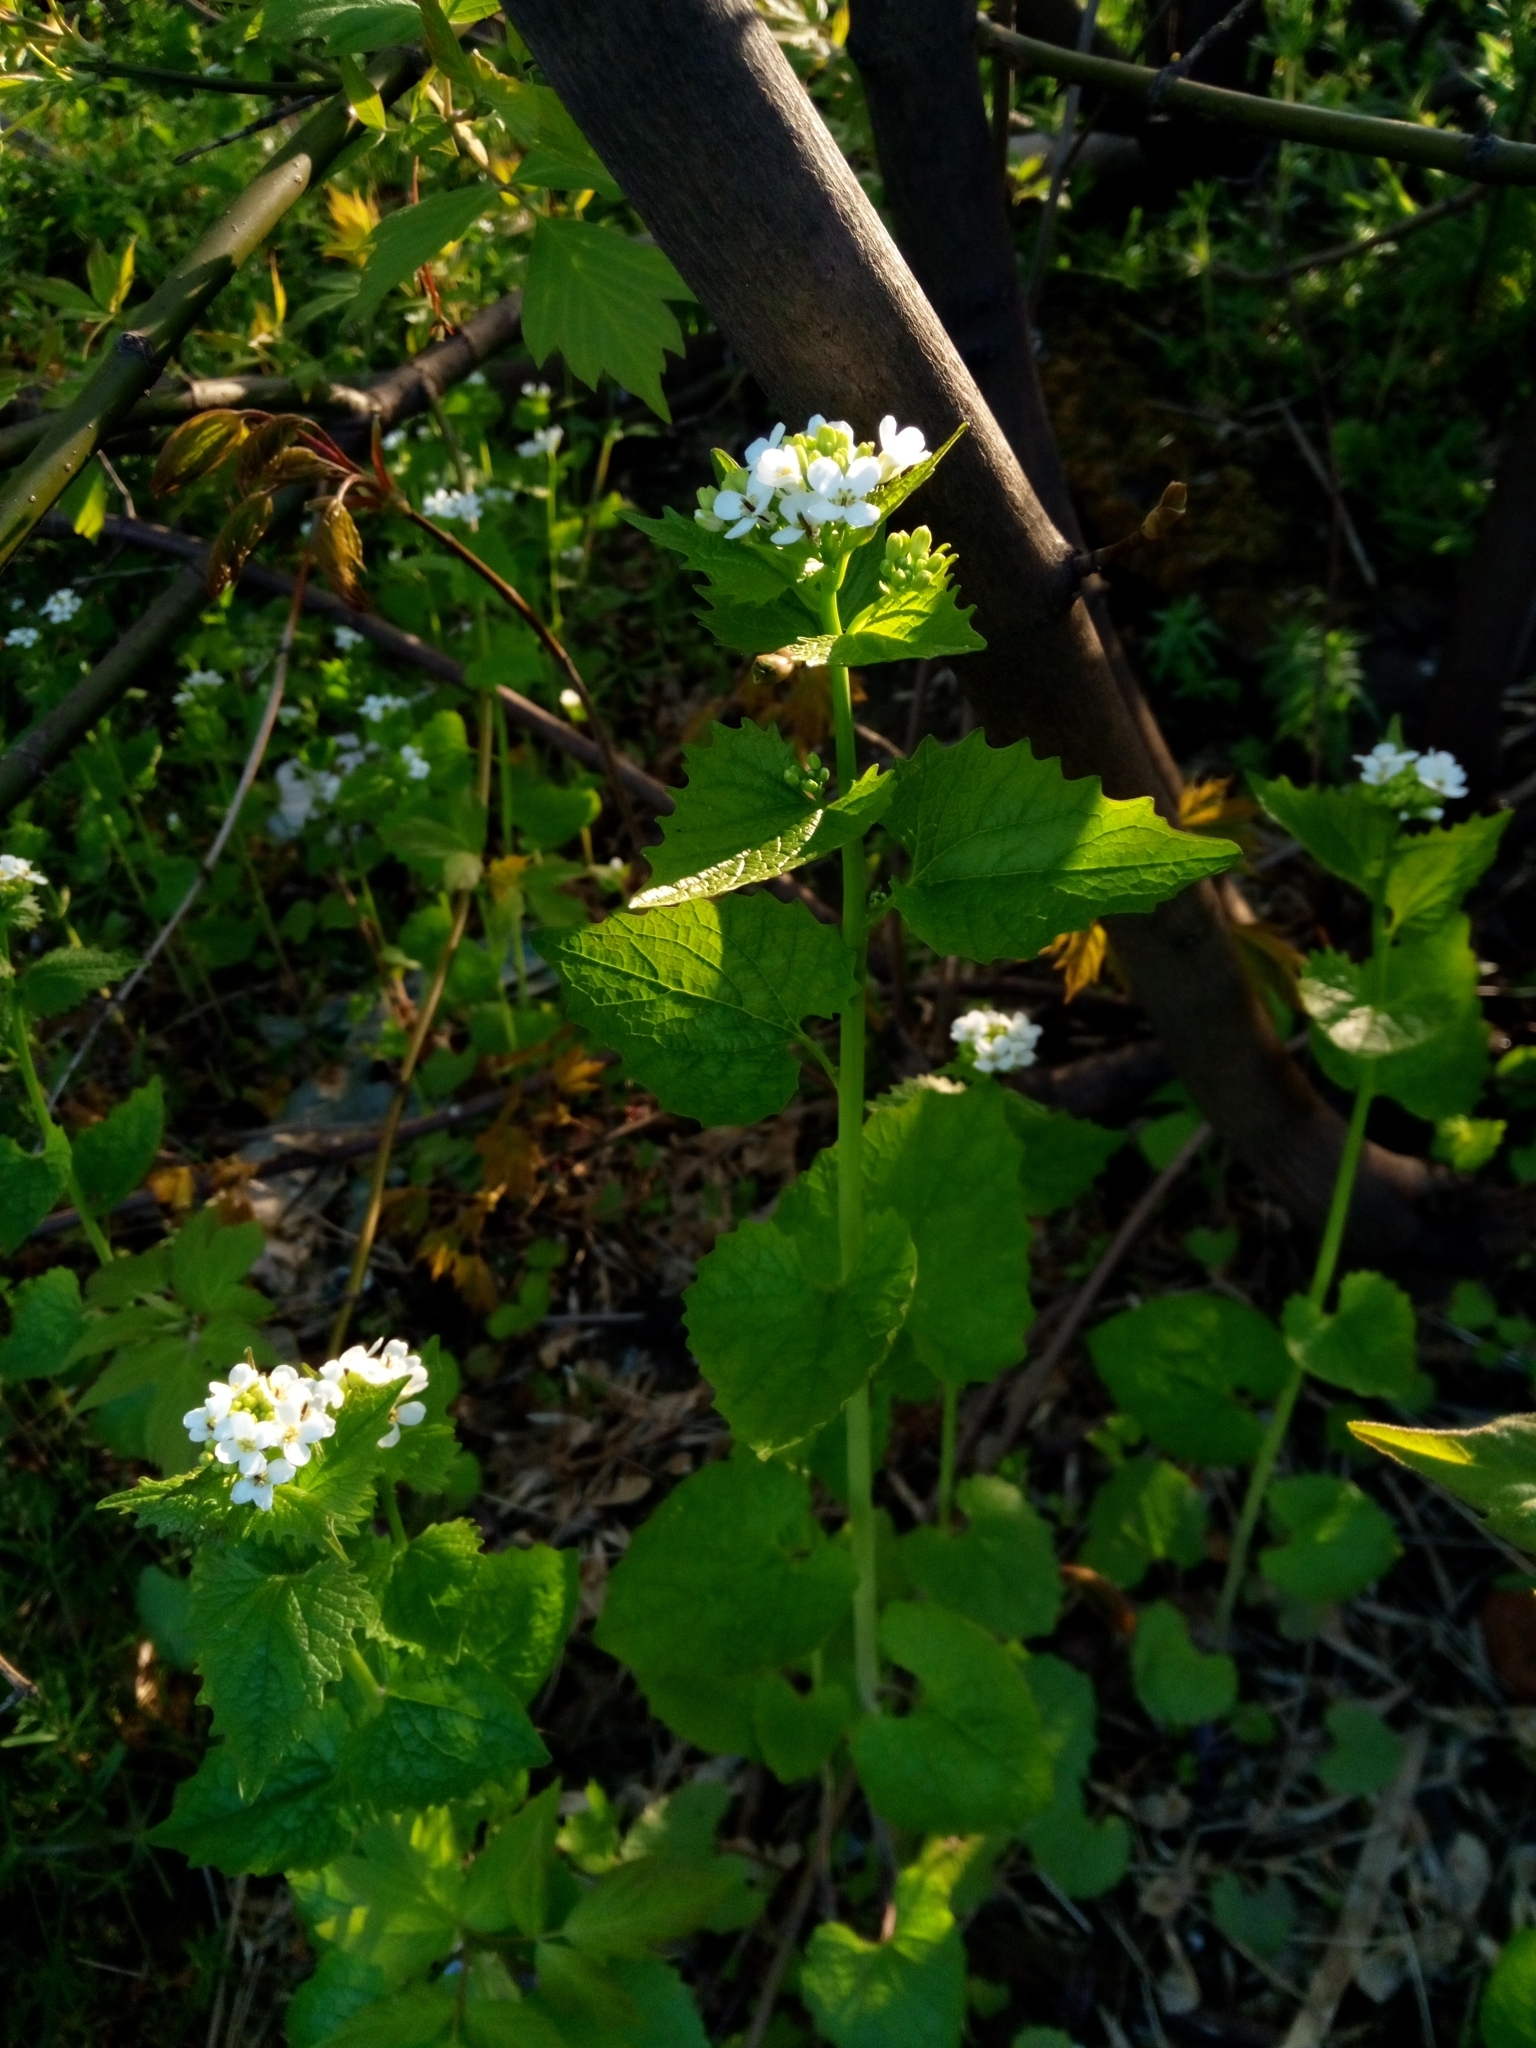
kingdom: Plantae
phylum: Tracheophyta
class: Magnoliopsida
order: Brassicales
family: Brassicaceae
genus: Alliaria
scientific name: Alliaria petiolata
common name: Garlic mustard
